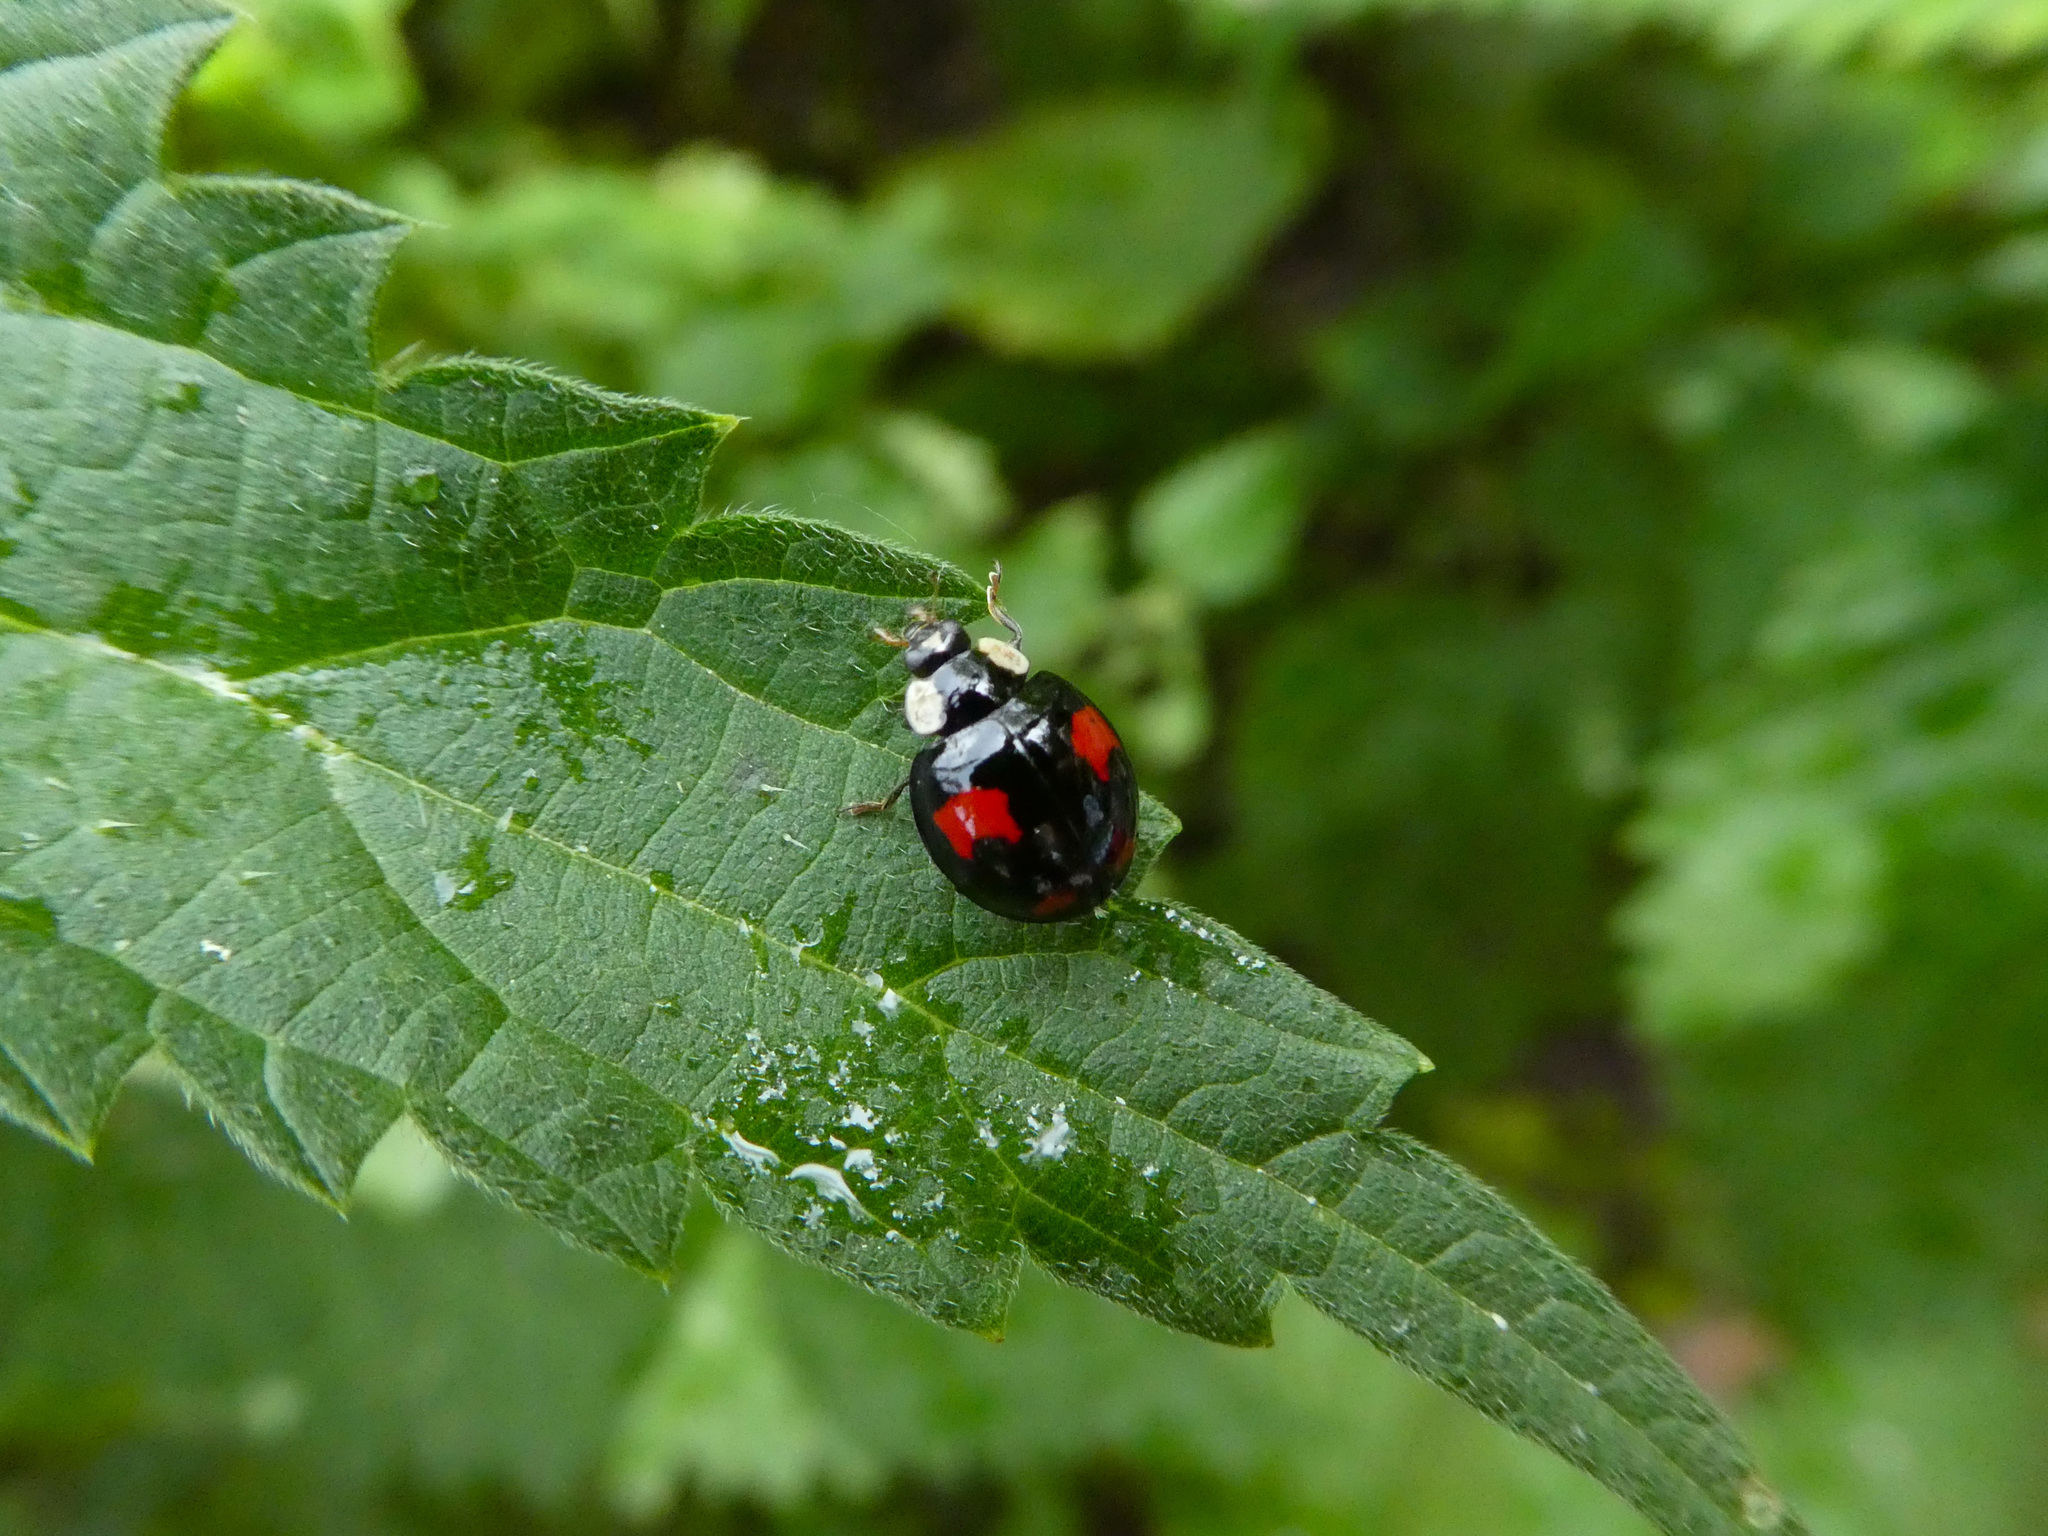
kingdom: Animalia
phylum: Arthropoda
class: Insecta
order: Coleoptera
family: Coccinellidae
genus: Harmonia
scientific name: Harmonia axyridis
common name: Harlequin ladybird
